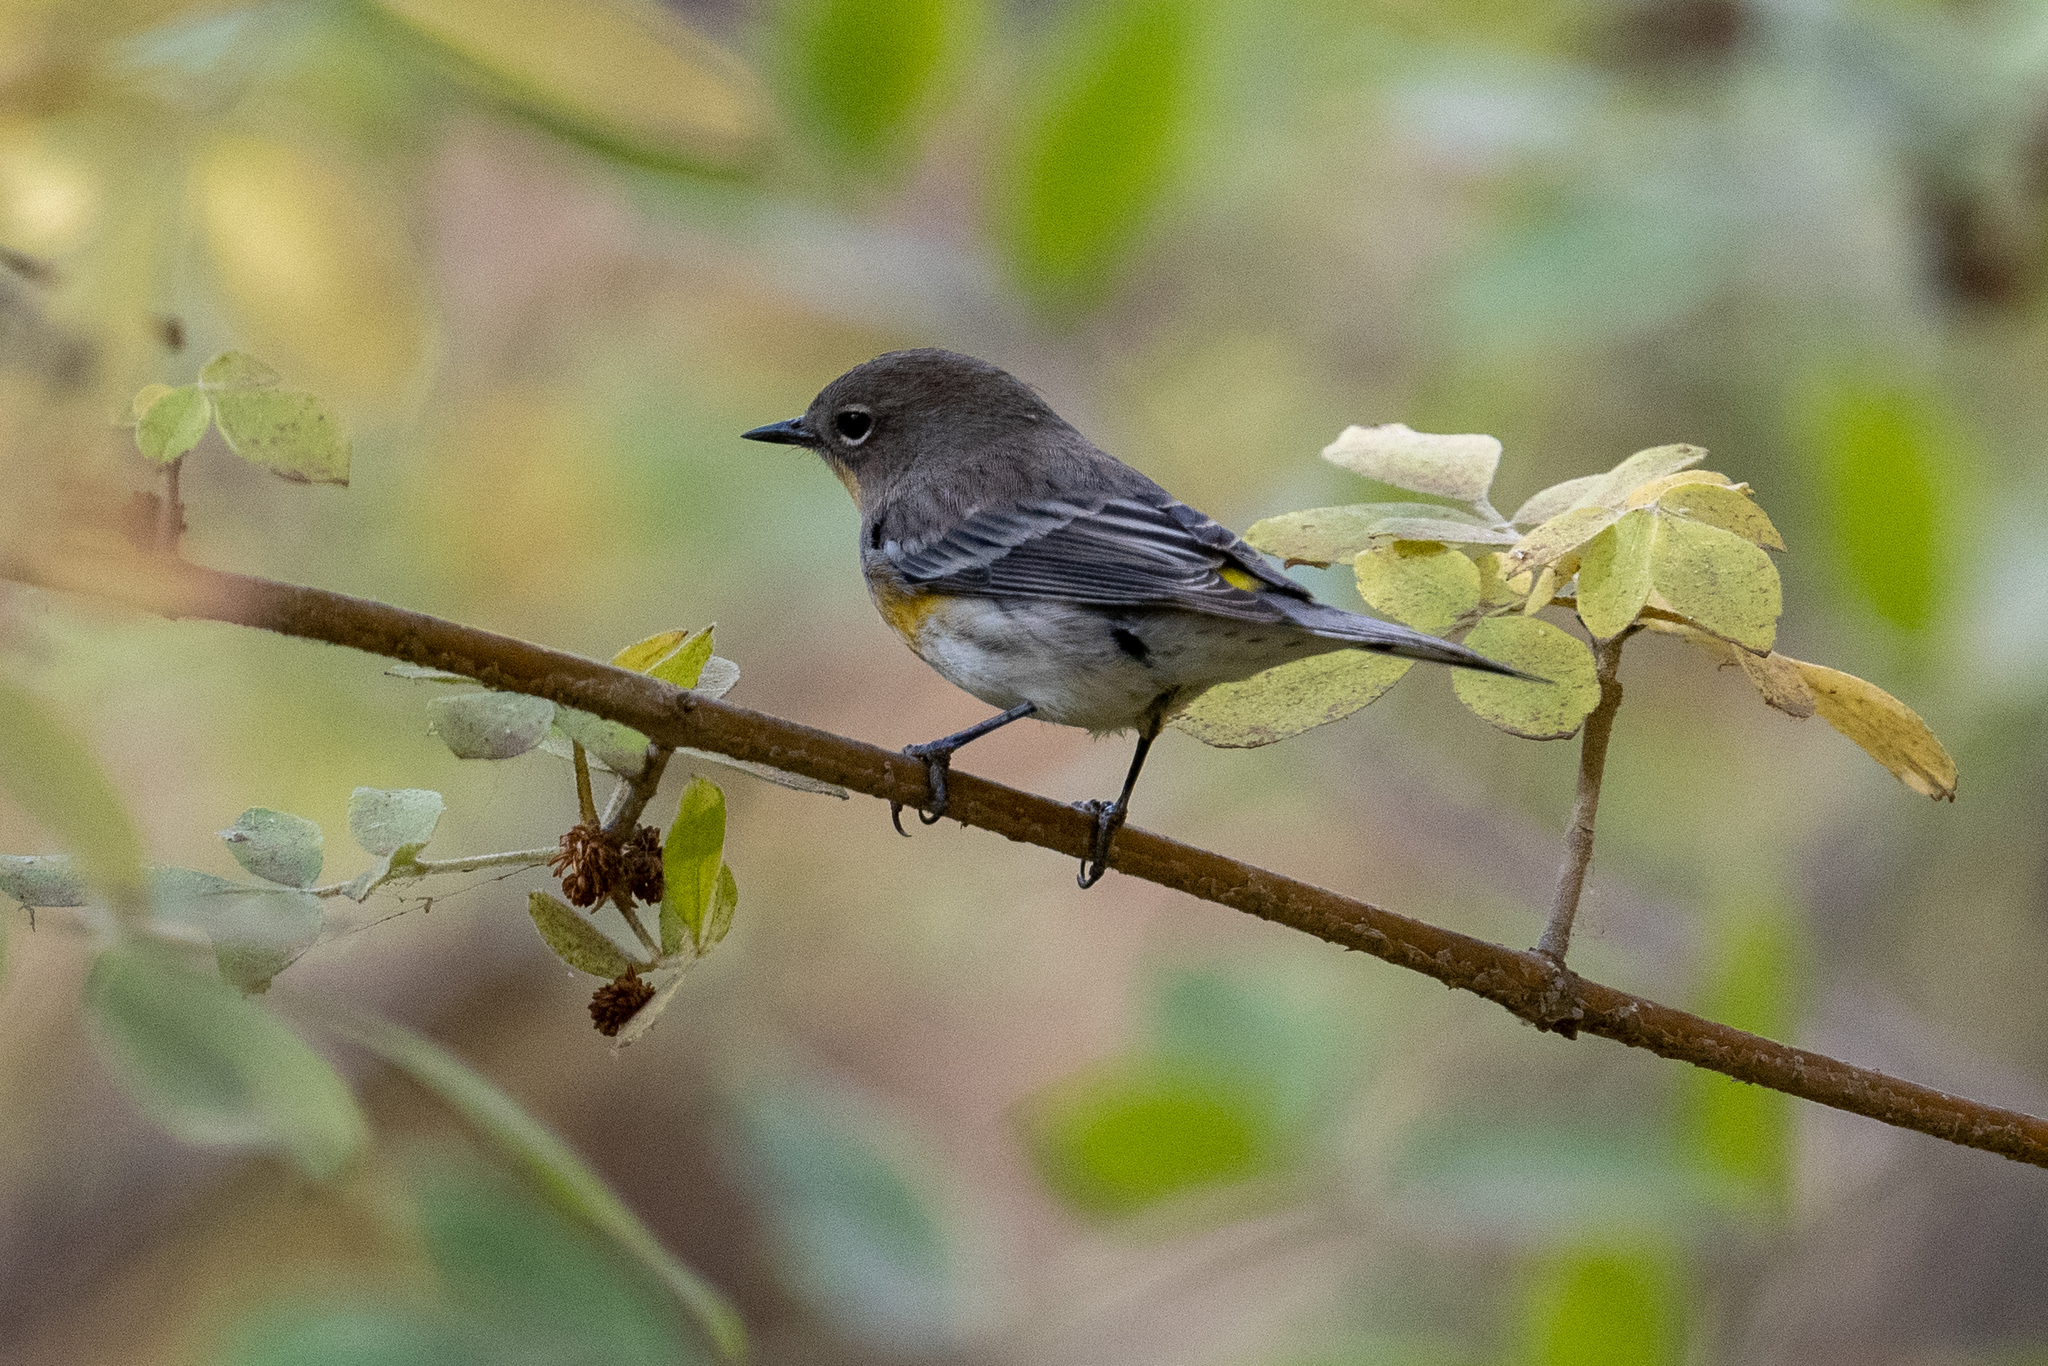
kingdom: Animalia
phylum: Chordata
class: Aves
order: Passeriformes
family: Parulidae
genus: Setophaga
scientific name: Setophaga coronata
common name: Myrtle warbler
